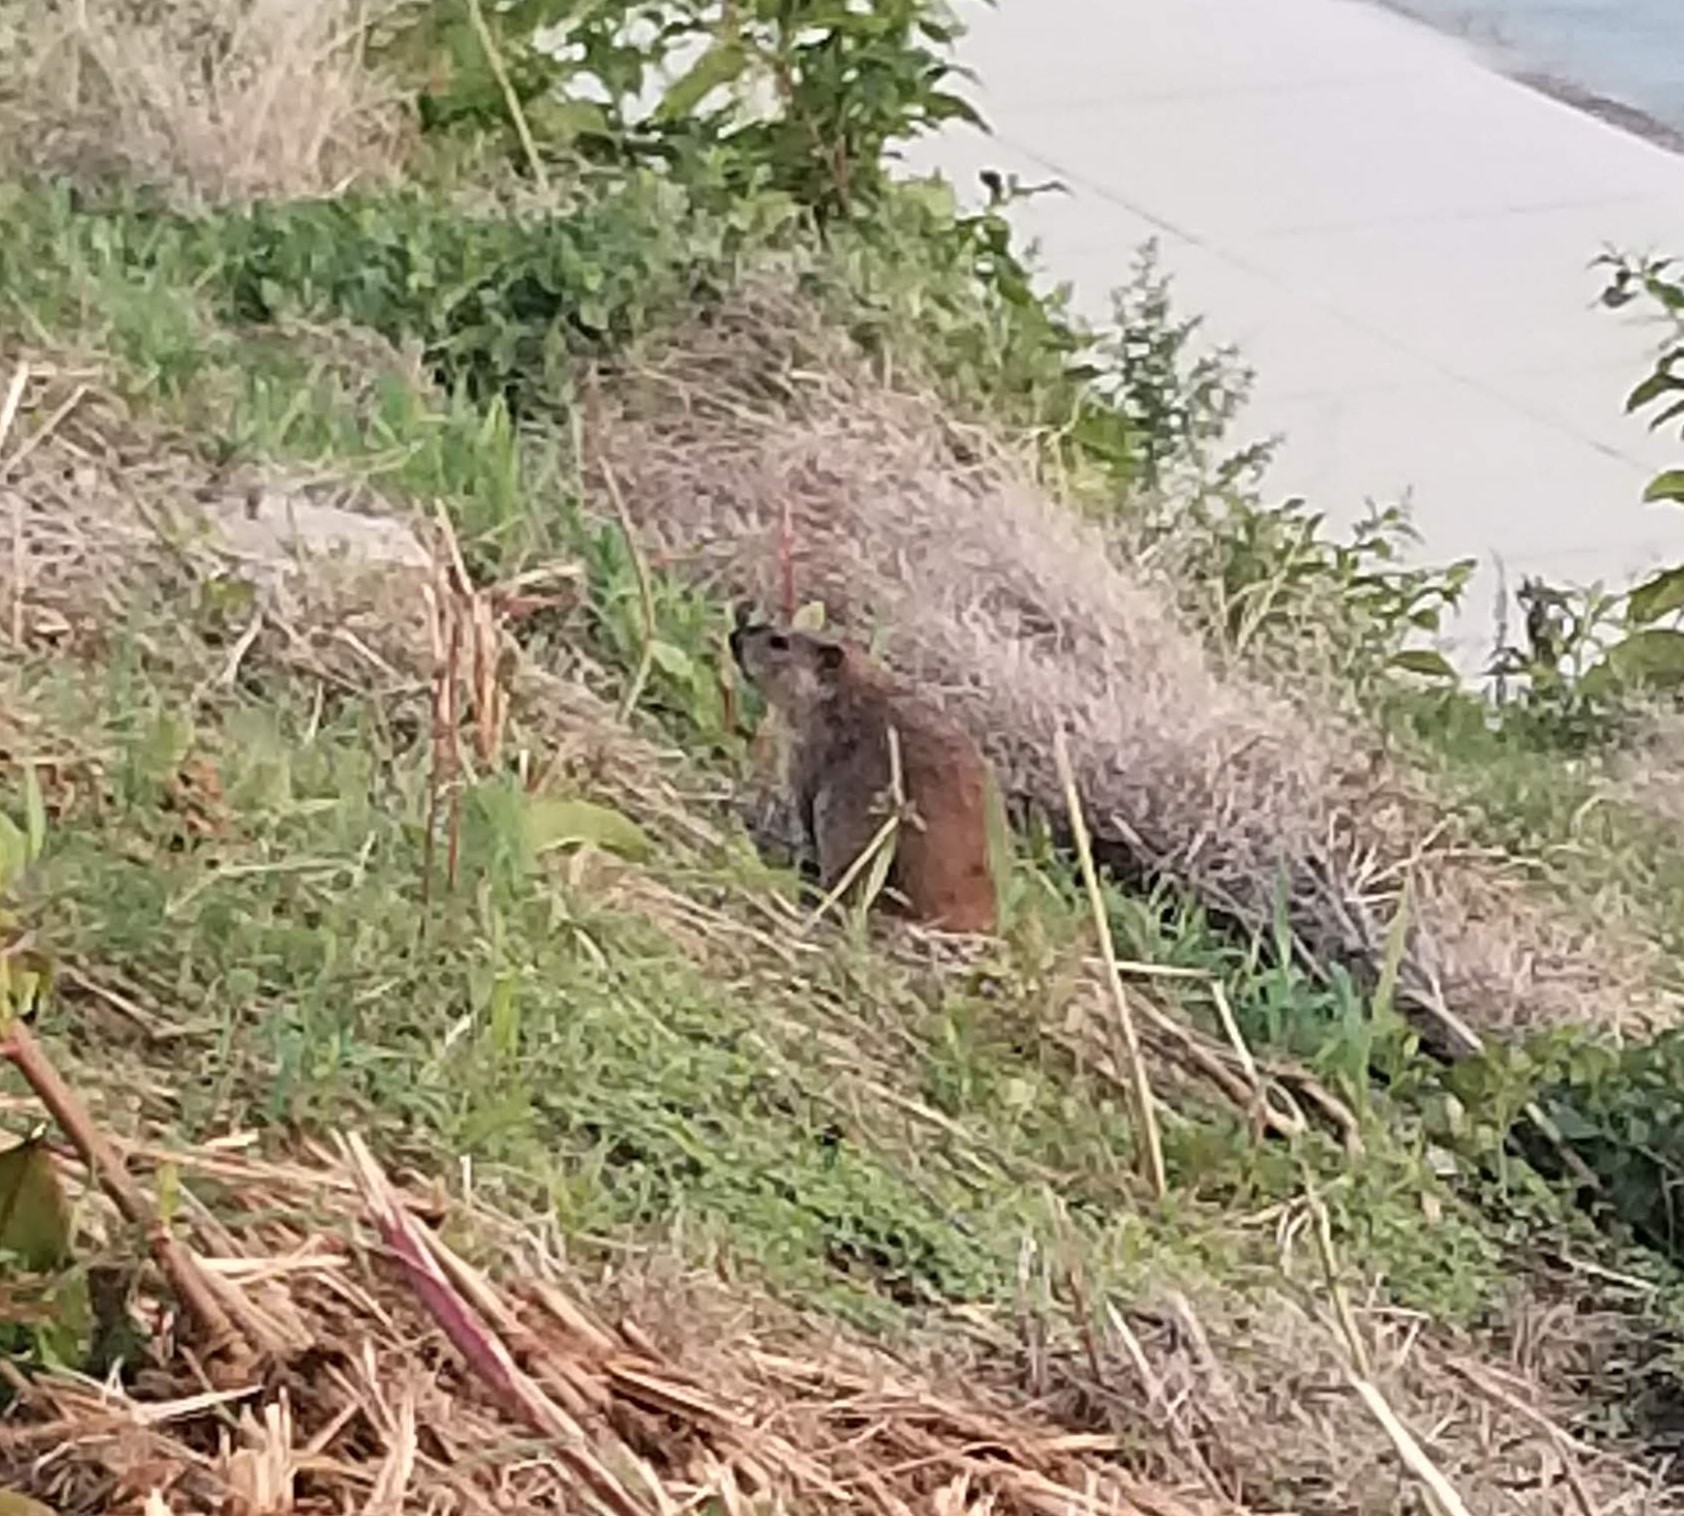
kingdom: Animalia
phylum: Chordata
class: Mammalia
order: Rodentia
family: Sciuridae
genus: Marmota
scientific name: Marmota monax
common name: Groundhog
